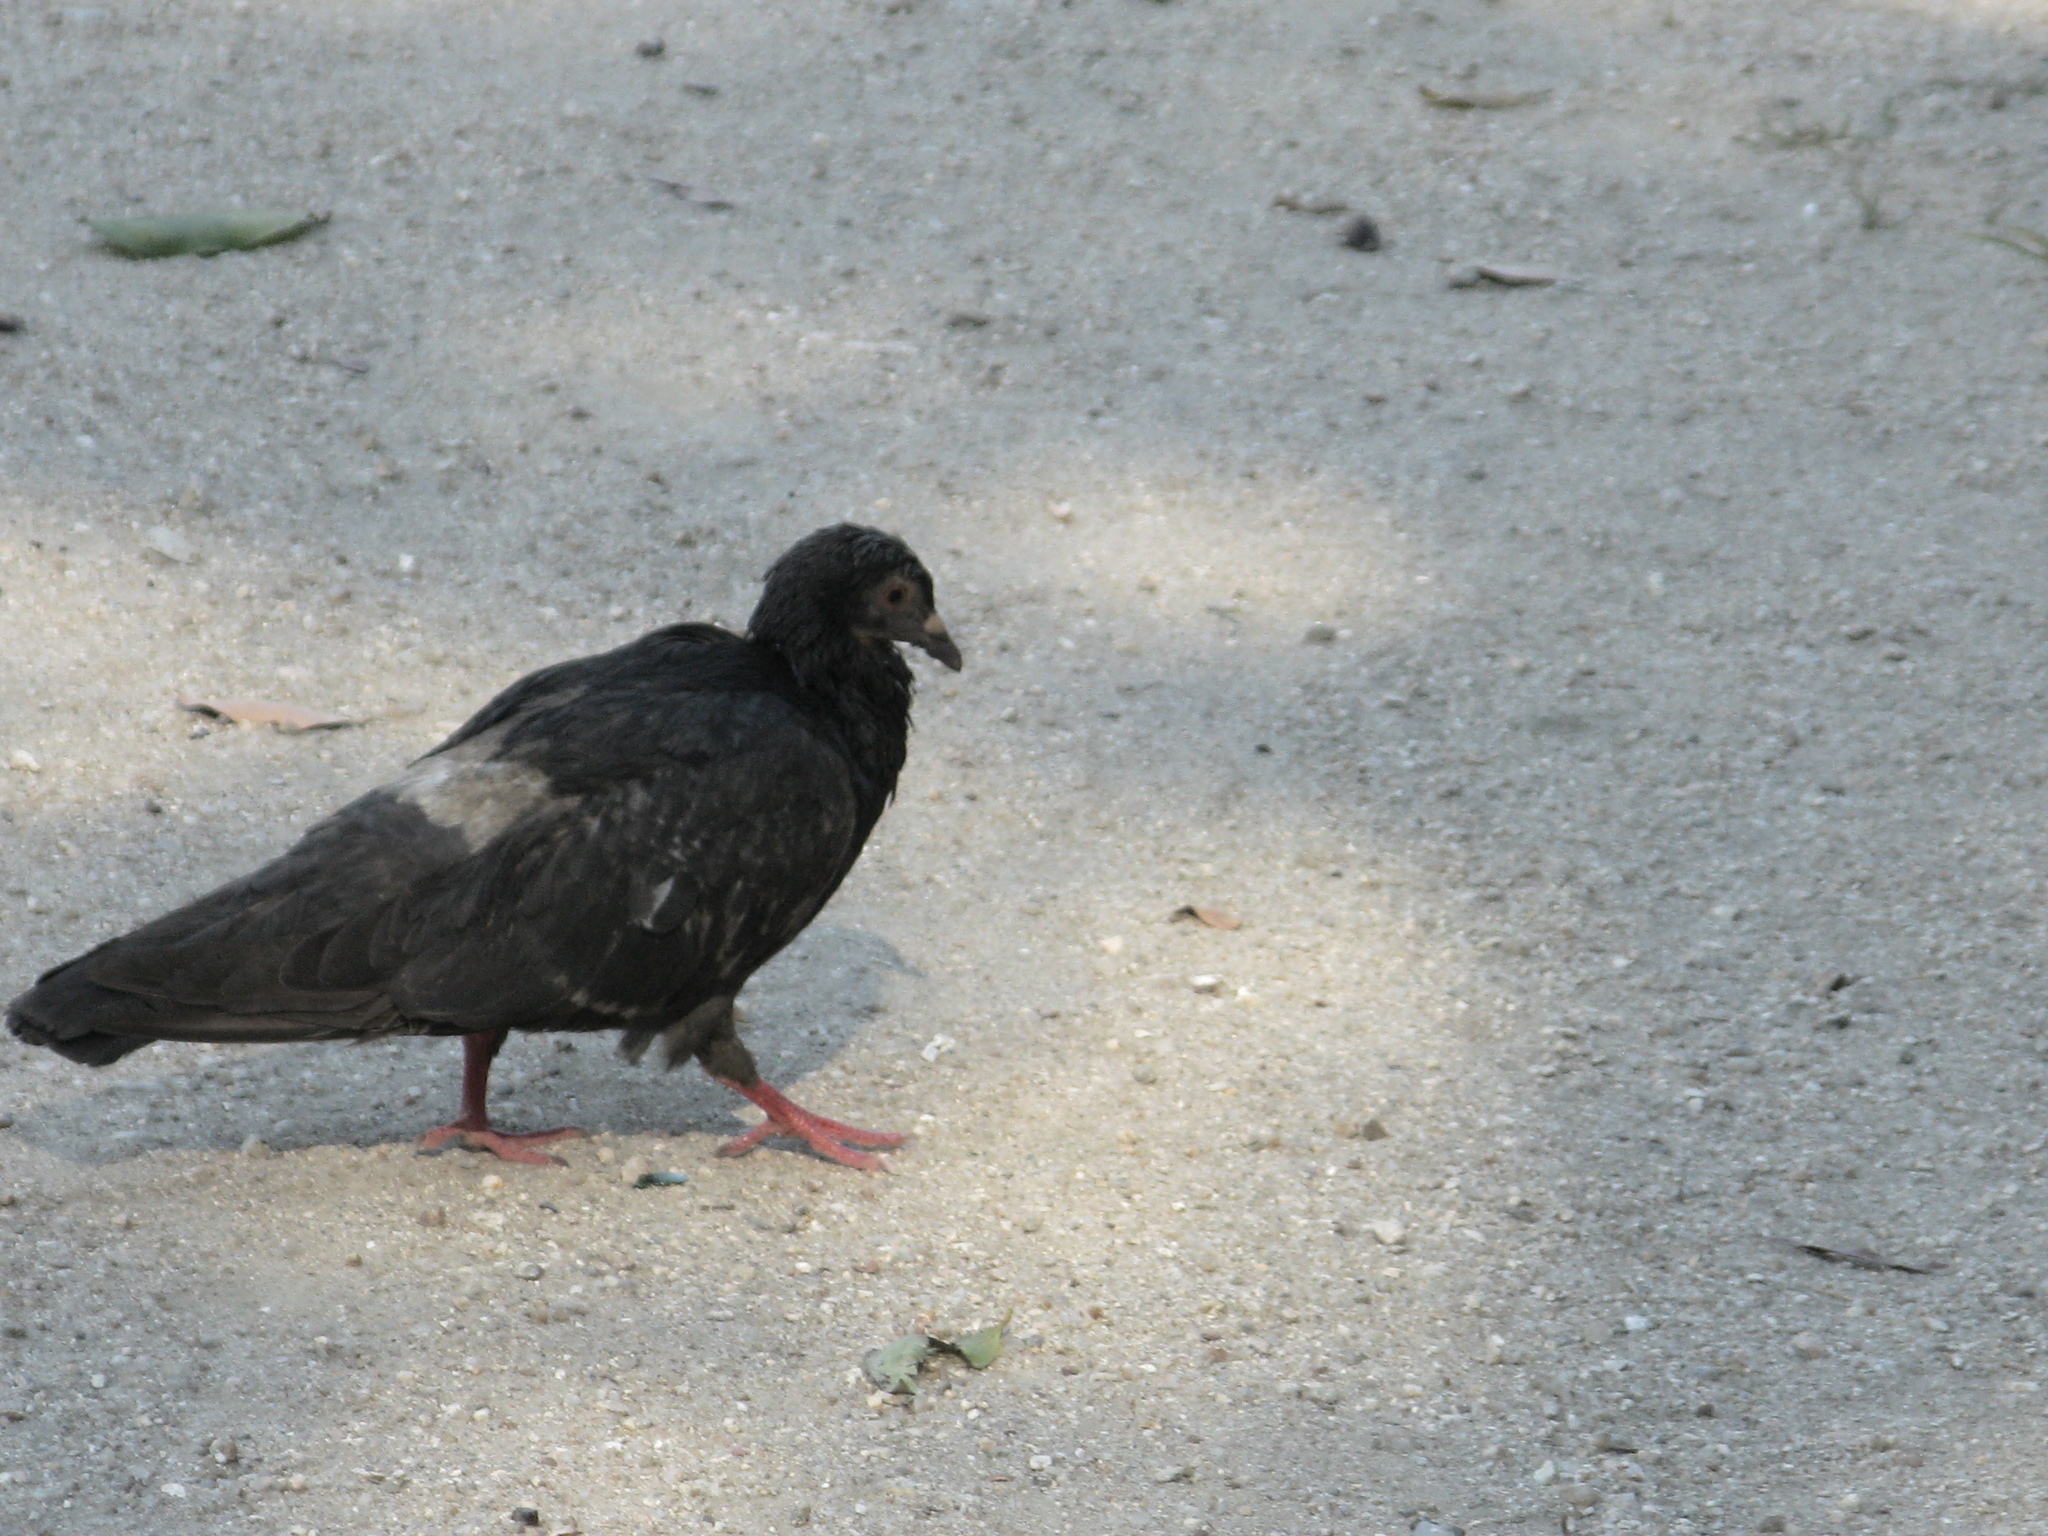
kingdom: Animalia
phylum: Chordata
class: Aves
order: Columbiformes
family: Columbidae
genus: Columba
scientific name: Columba livia
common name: Rock pigeon
